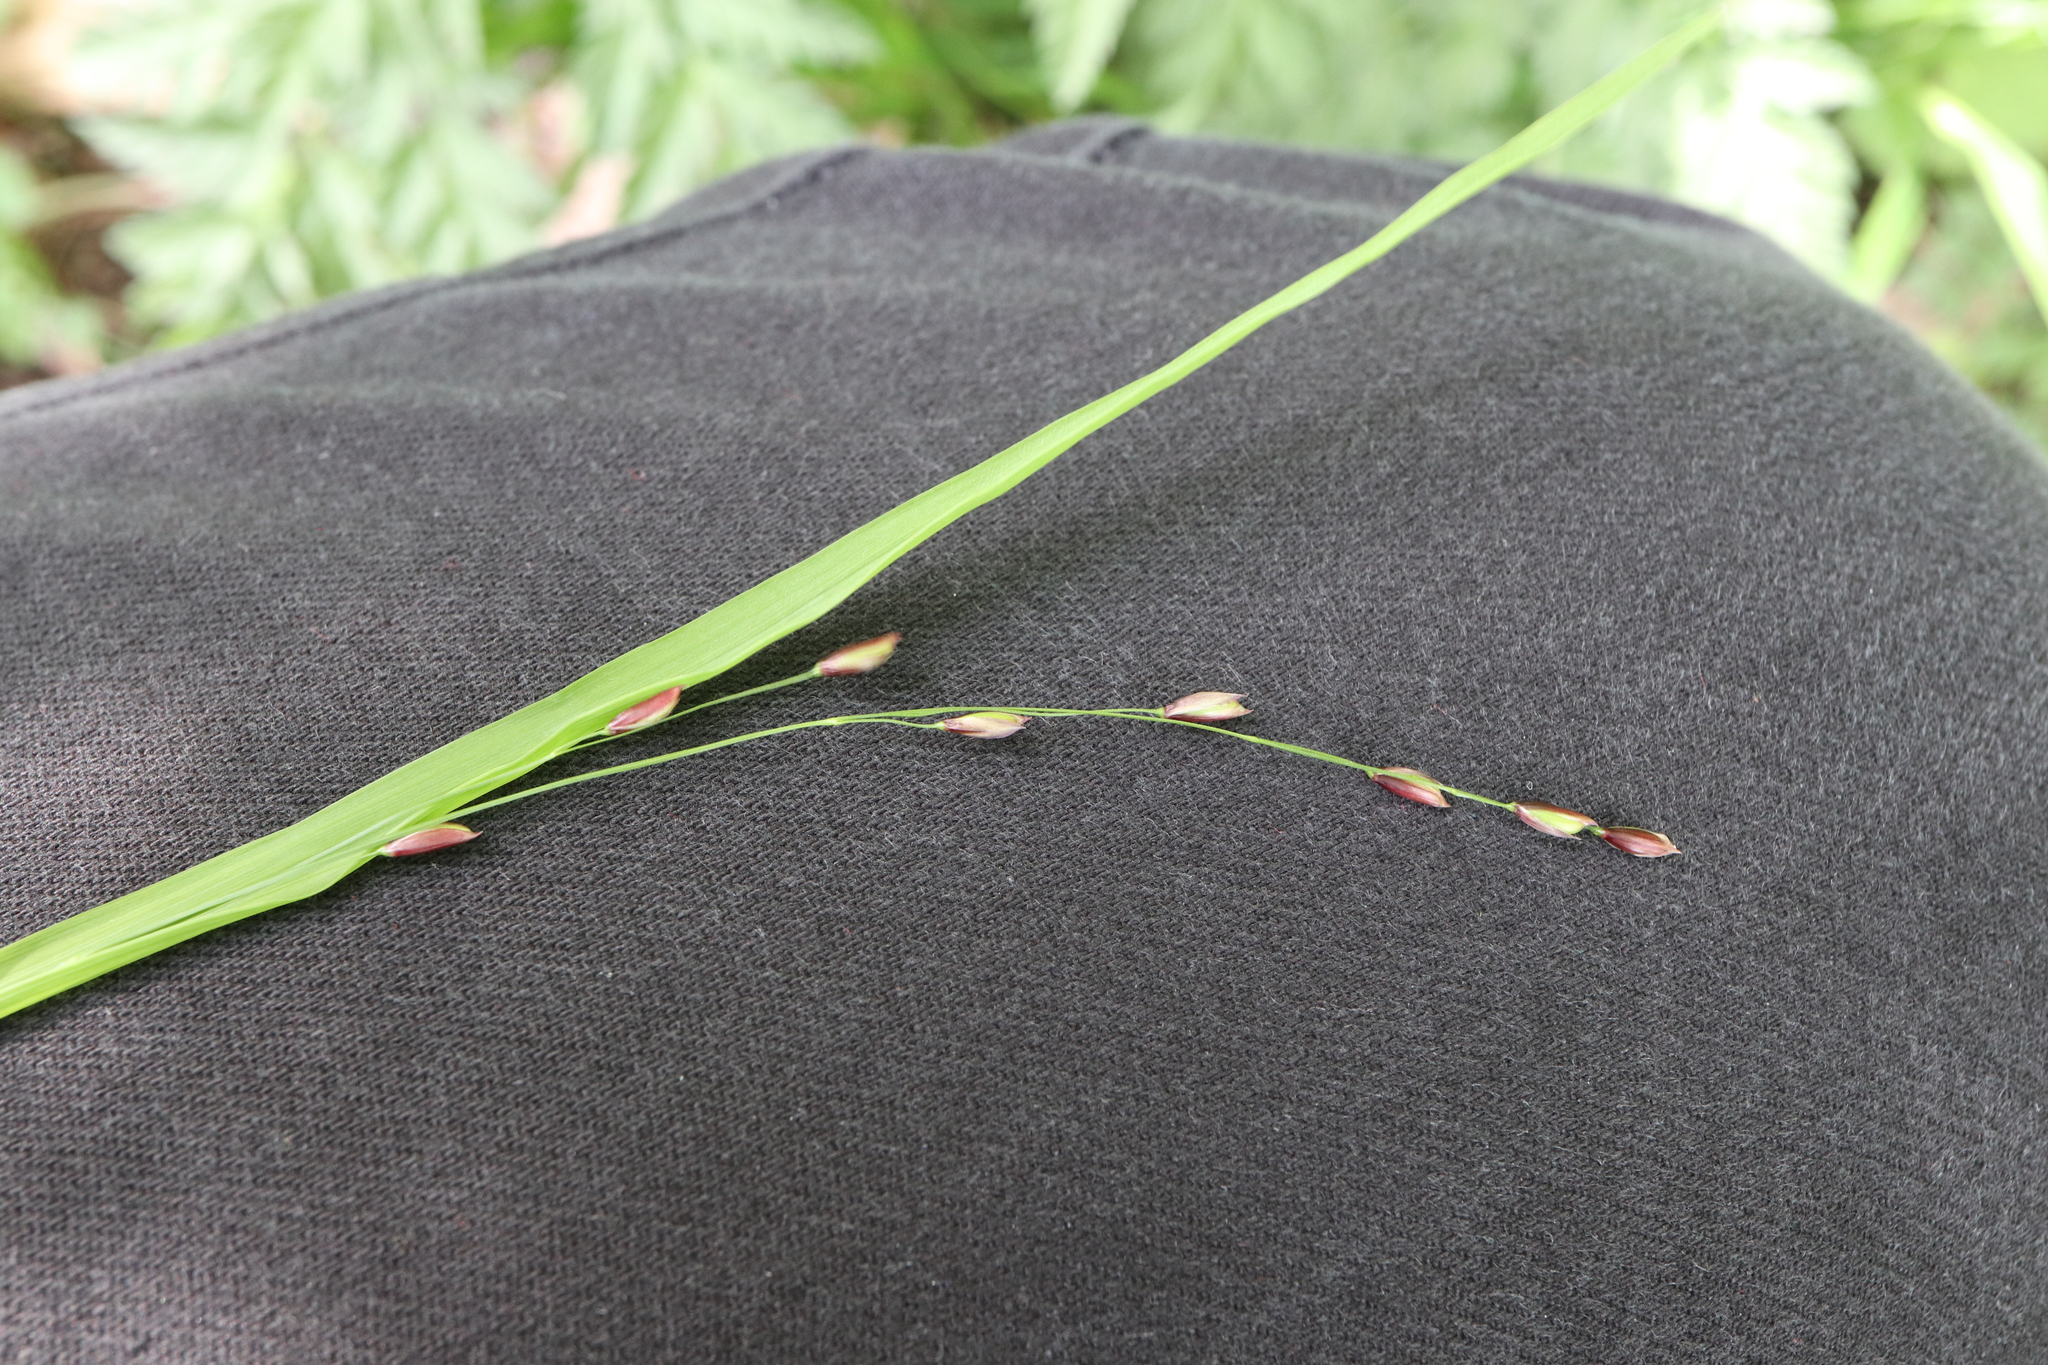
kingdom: Plantae
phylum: Tracheophyta
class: Liliopsida
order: Poales
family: Poaceae
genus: Melica
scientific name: Melica uniflora
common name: Wood melick
